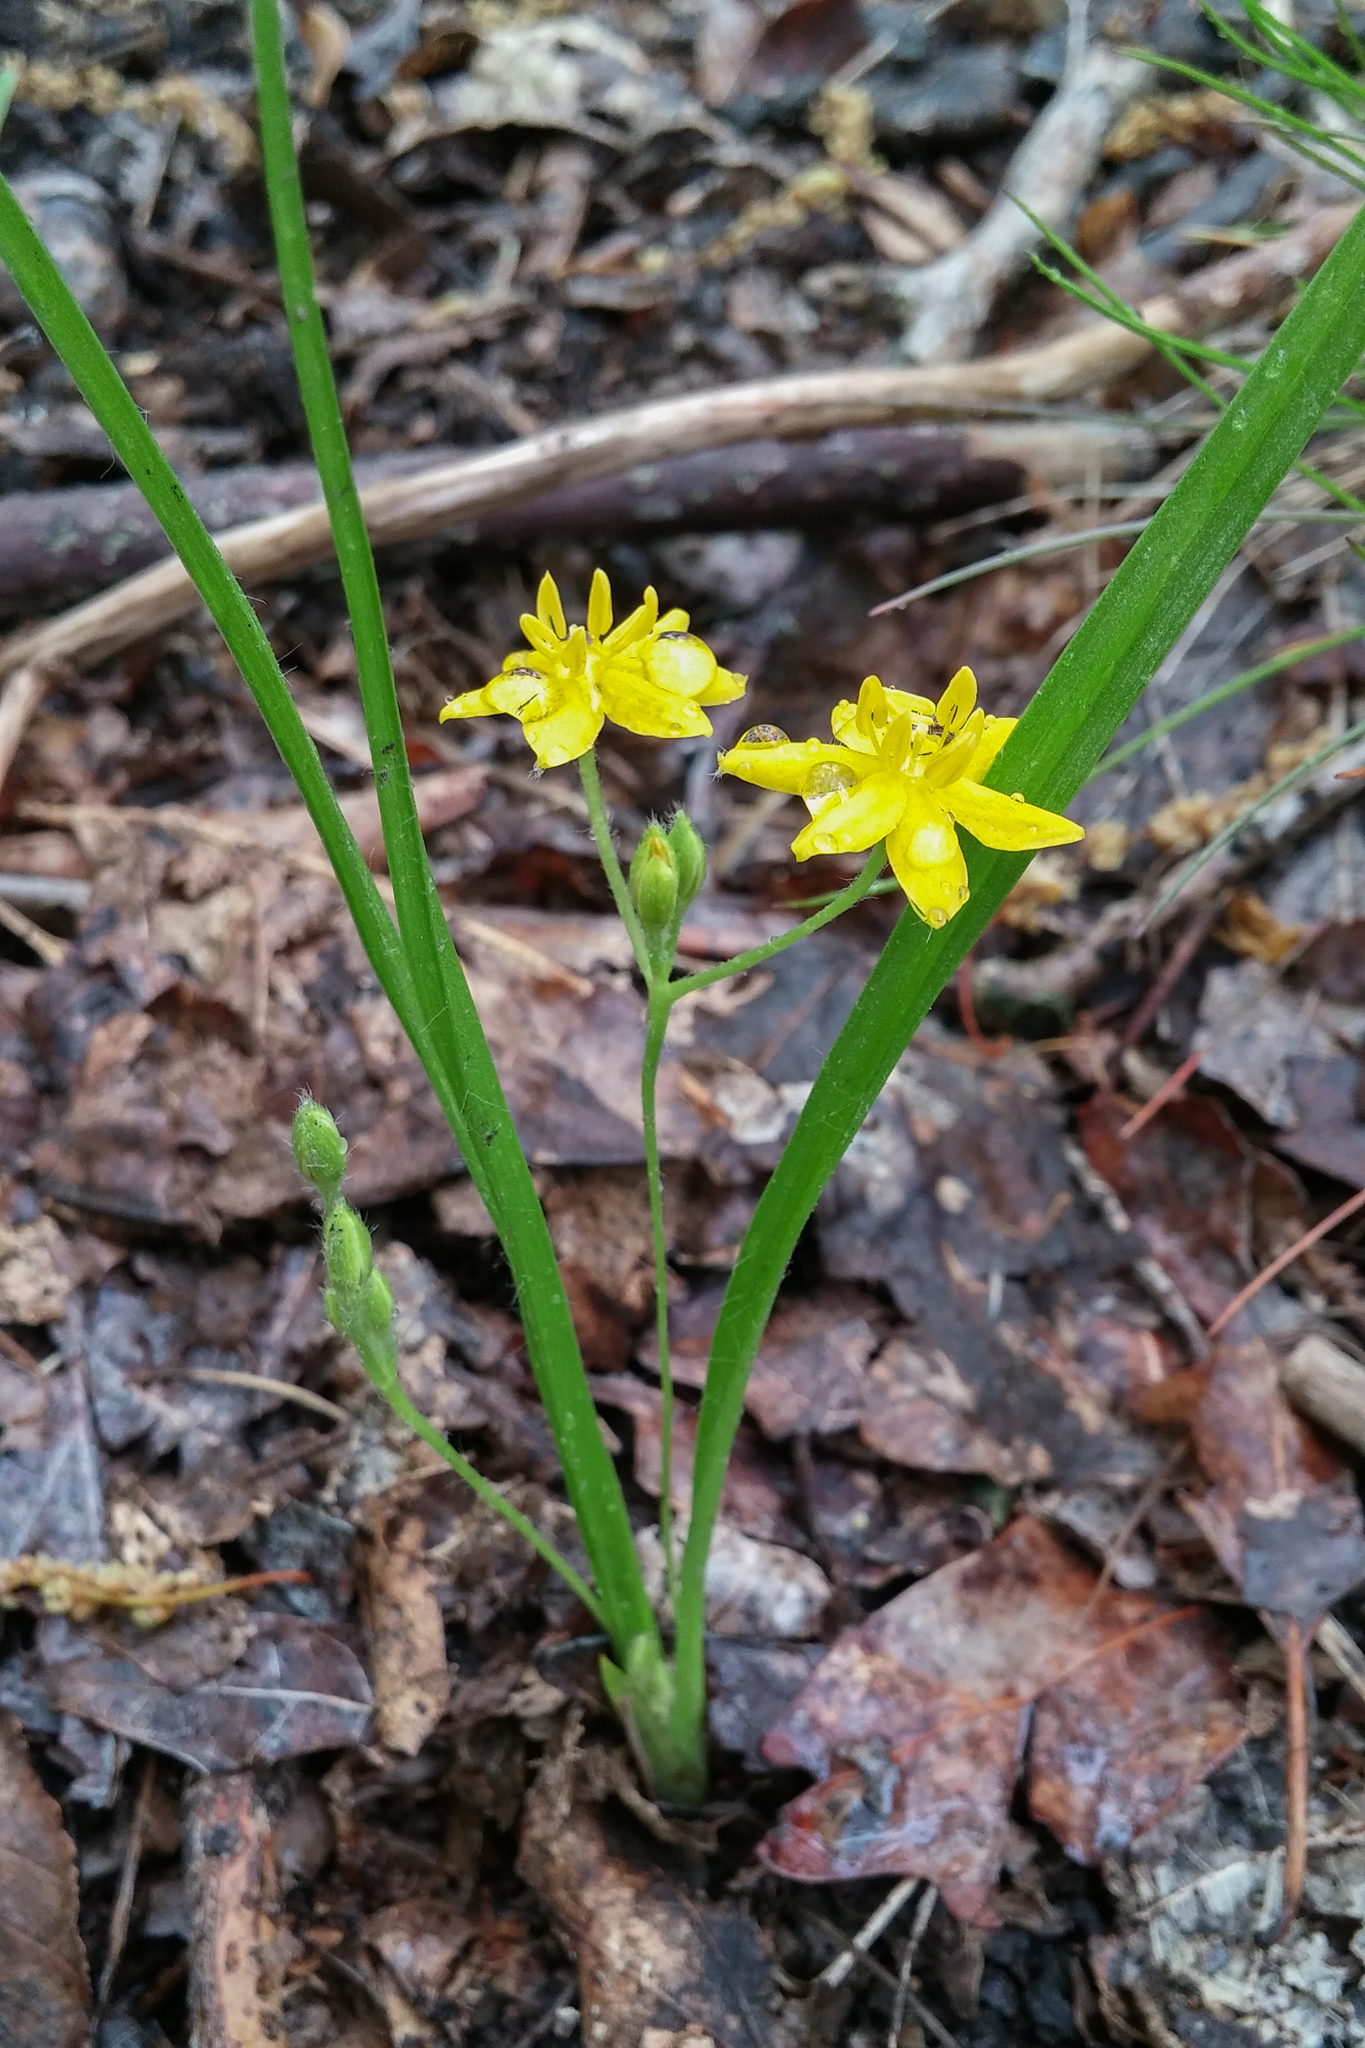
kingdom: Plantae
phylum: Tracheophyta
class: Liliopsida
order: Asparagales
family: Hypoxidaceae
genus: Hypoxis
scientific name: Hypoxis hirsuta
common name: Common goldstar
